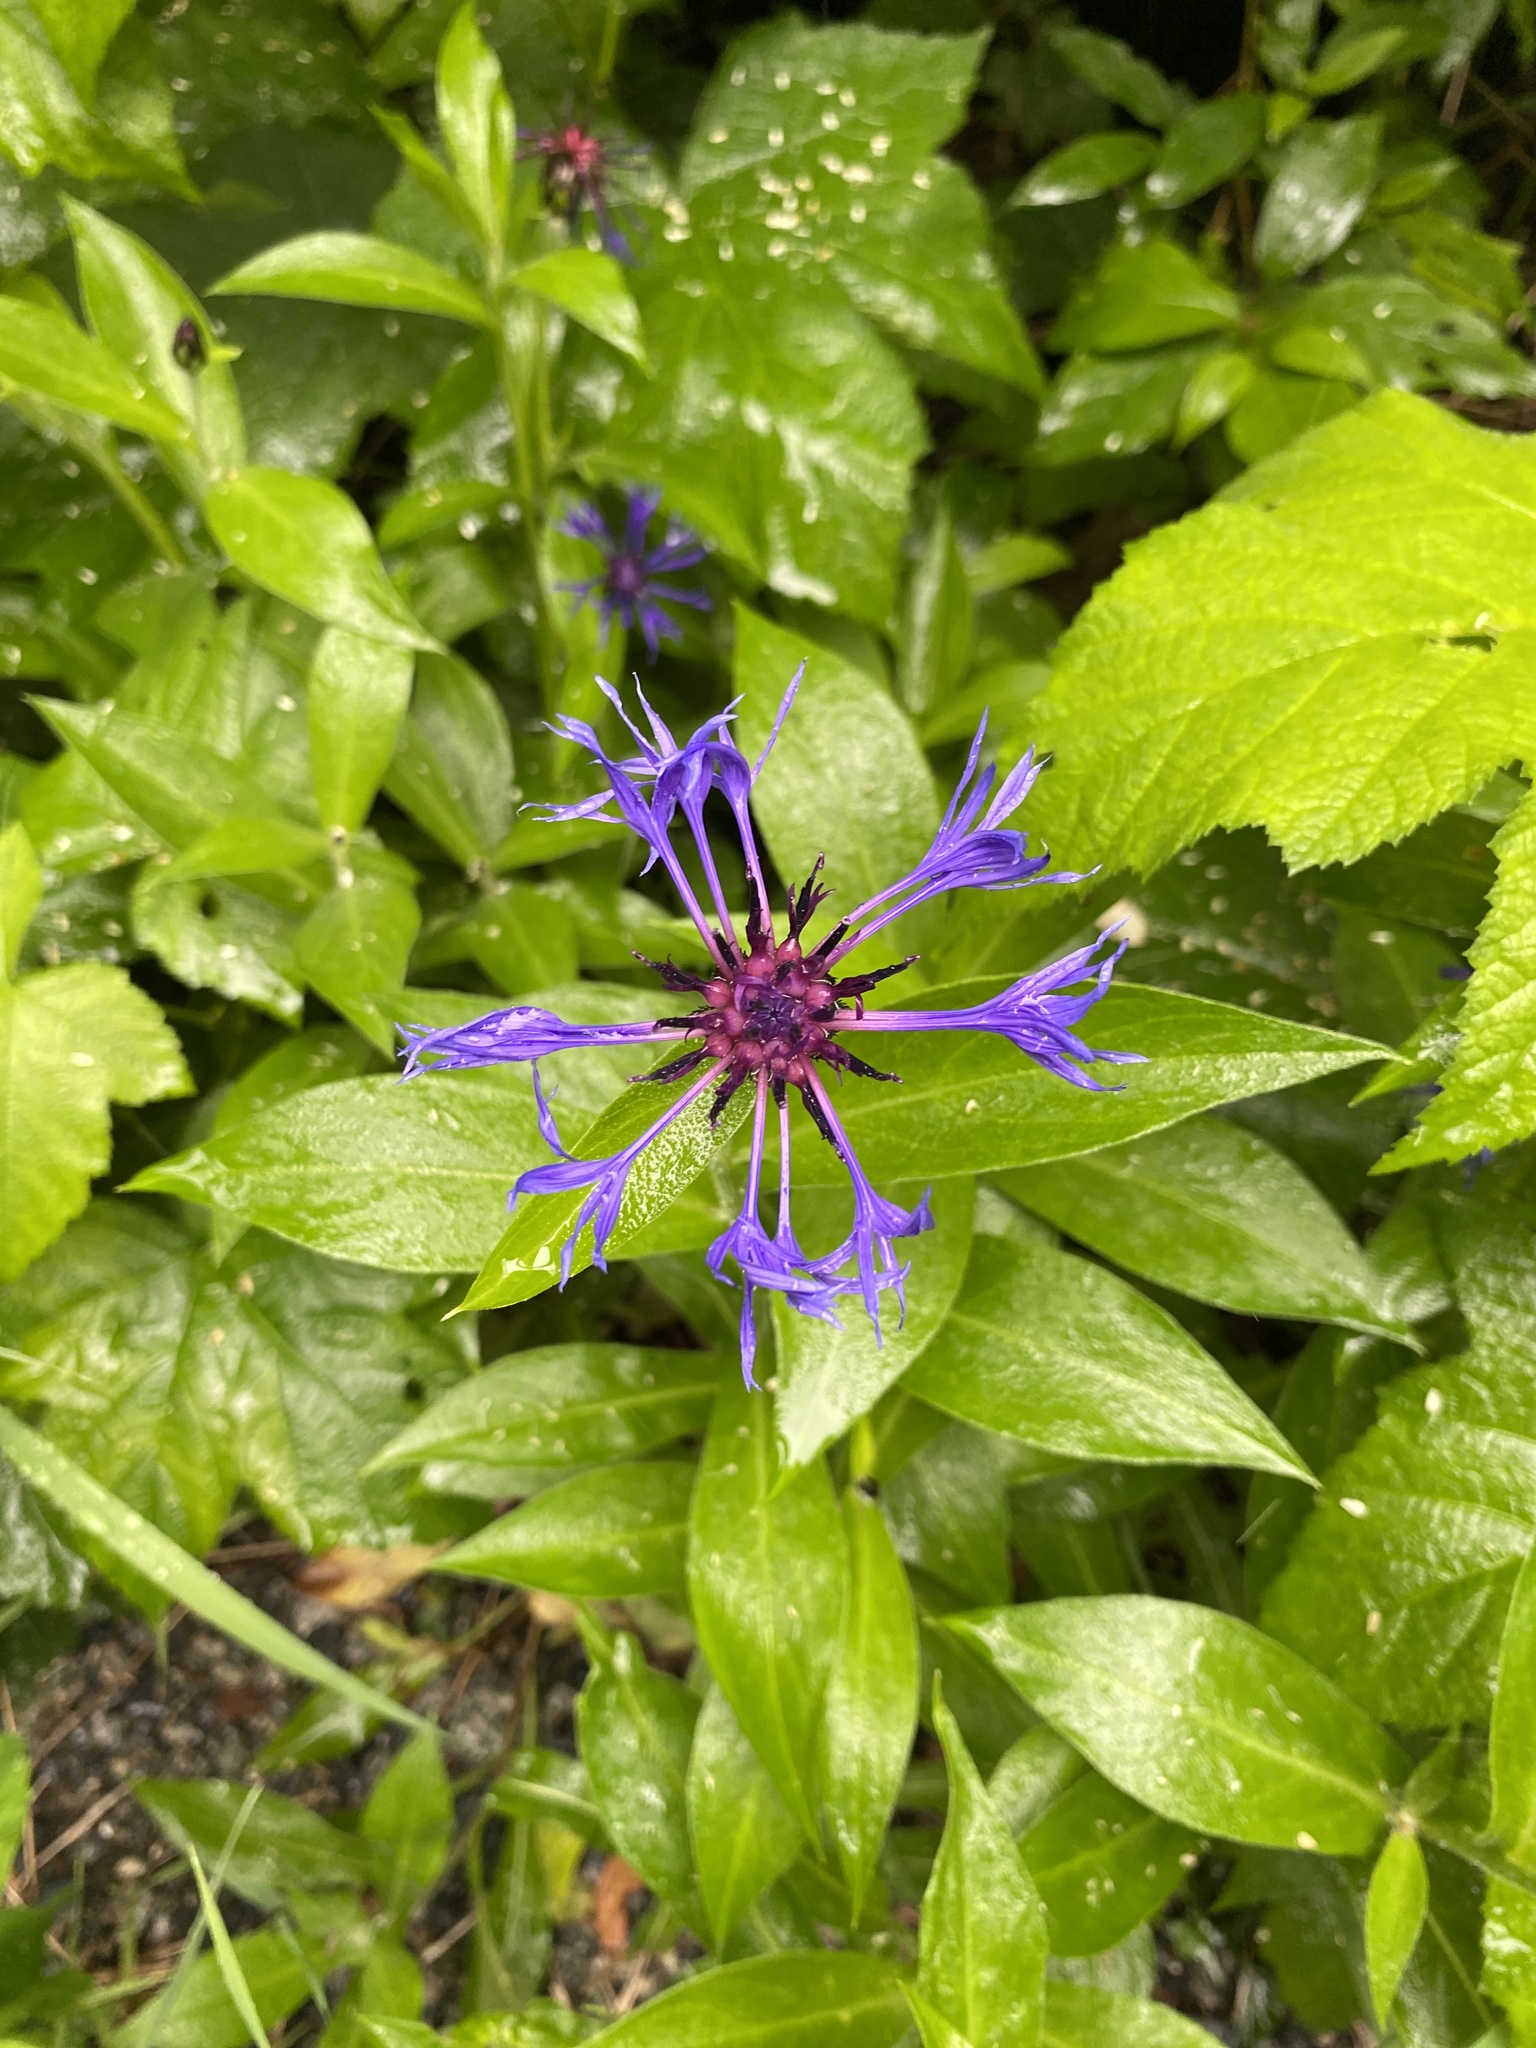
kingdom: Plantae
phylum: Tracheophyta
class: Magnoliopsida
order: Asterales
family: Asteraceae
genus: Centaurea
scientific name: Centaurea montana
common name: Perennial cornflower
